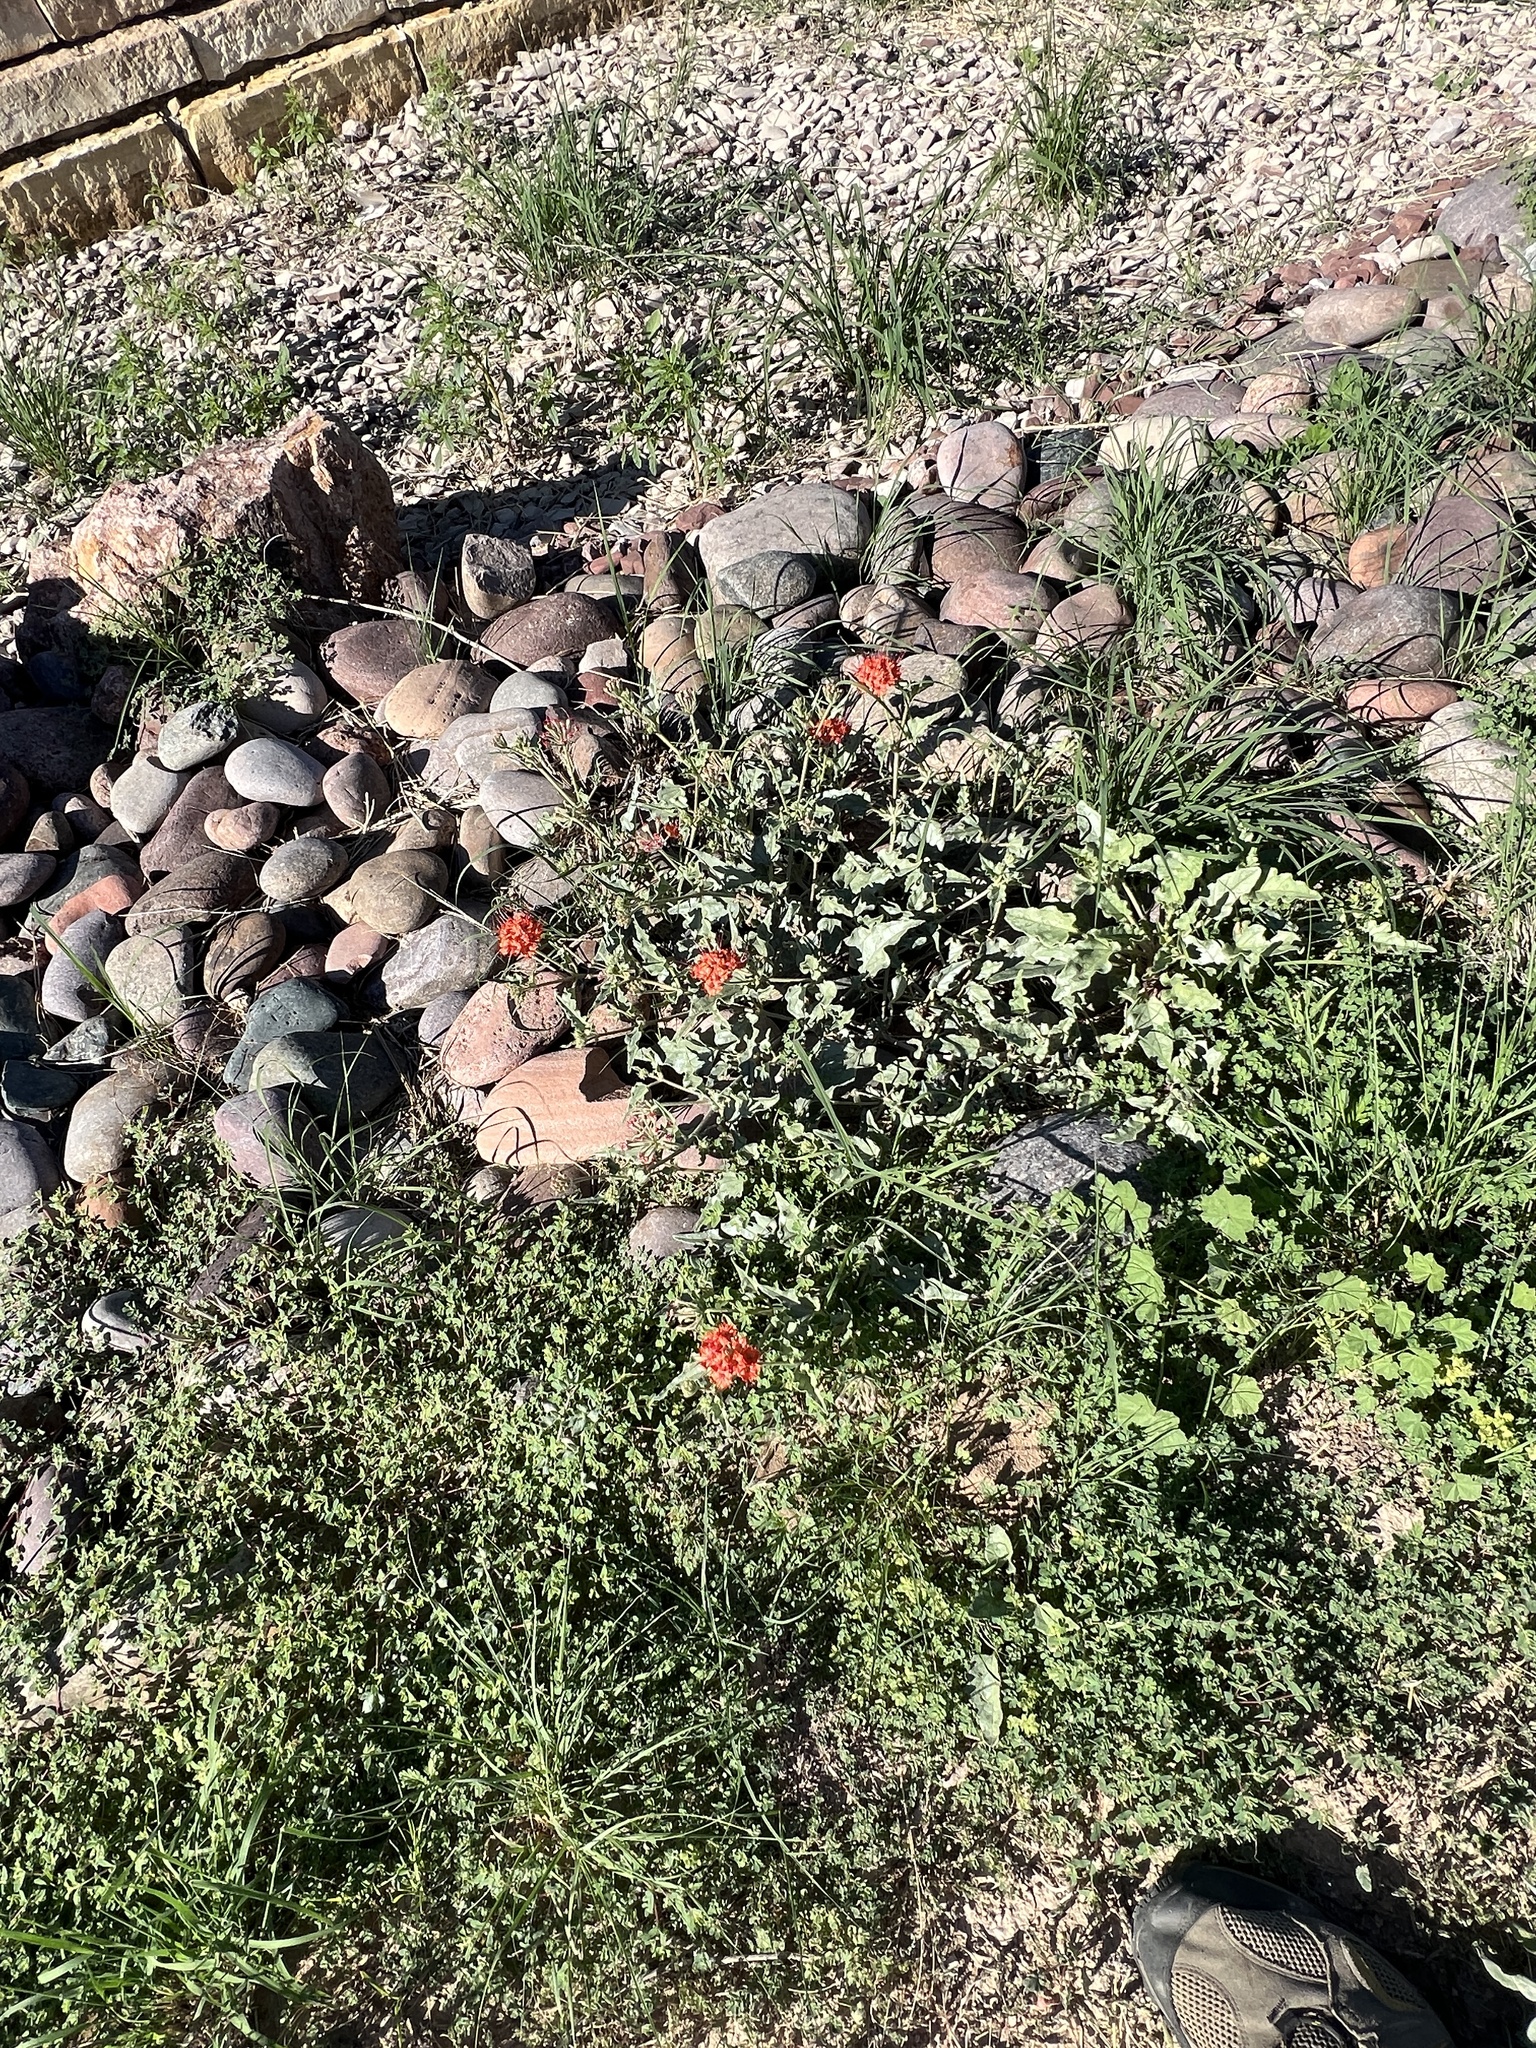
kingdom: Plantae
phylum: Tracheophyta
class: Magnoliopsida
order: Caryophyllales
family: Nyctaginaceae
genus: Nyctaginia
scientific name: Nyctaginia capitata
